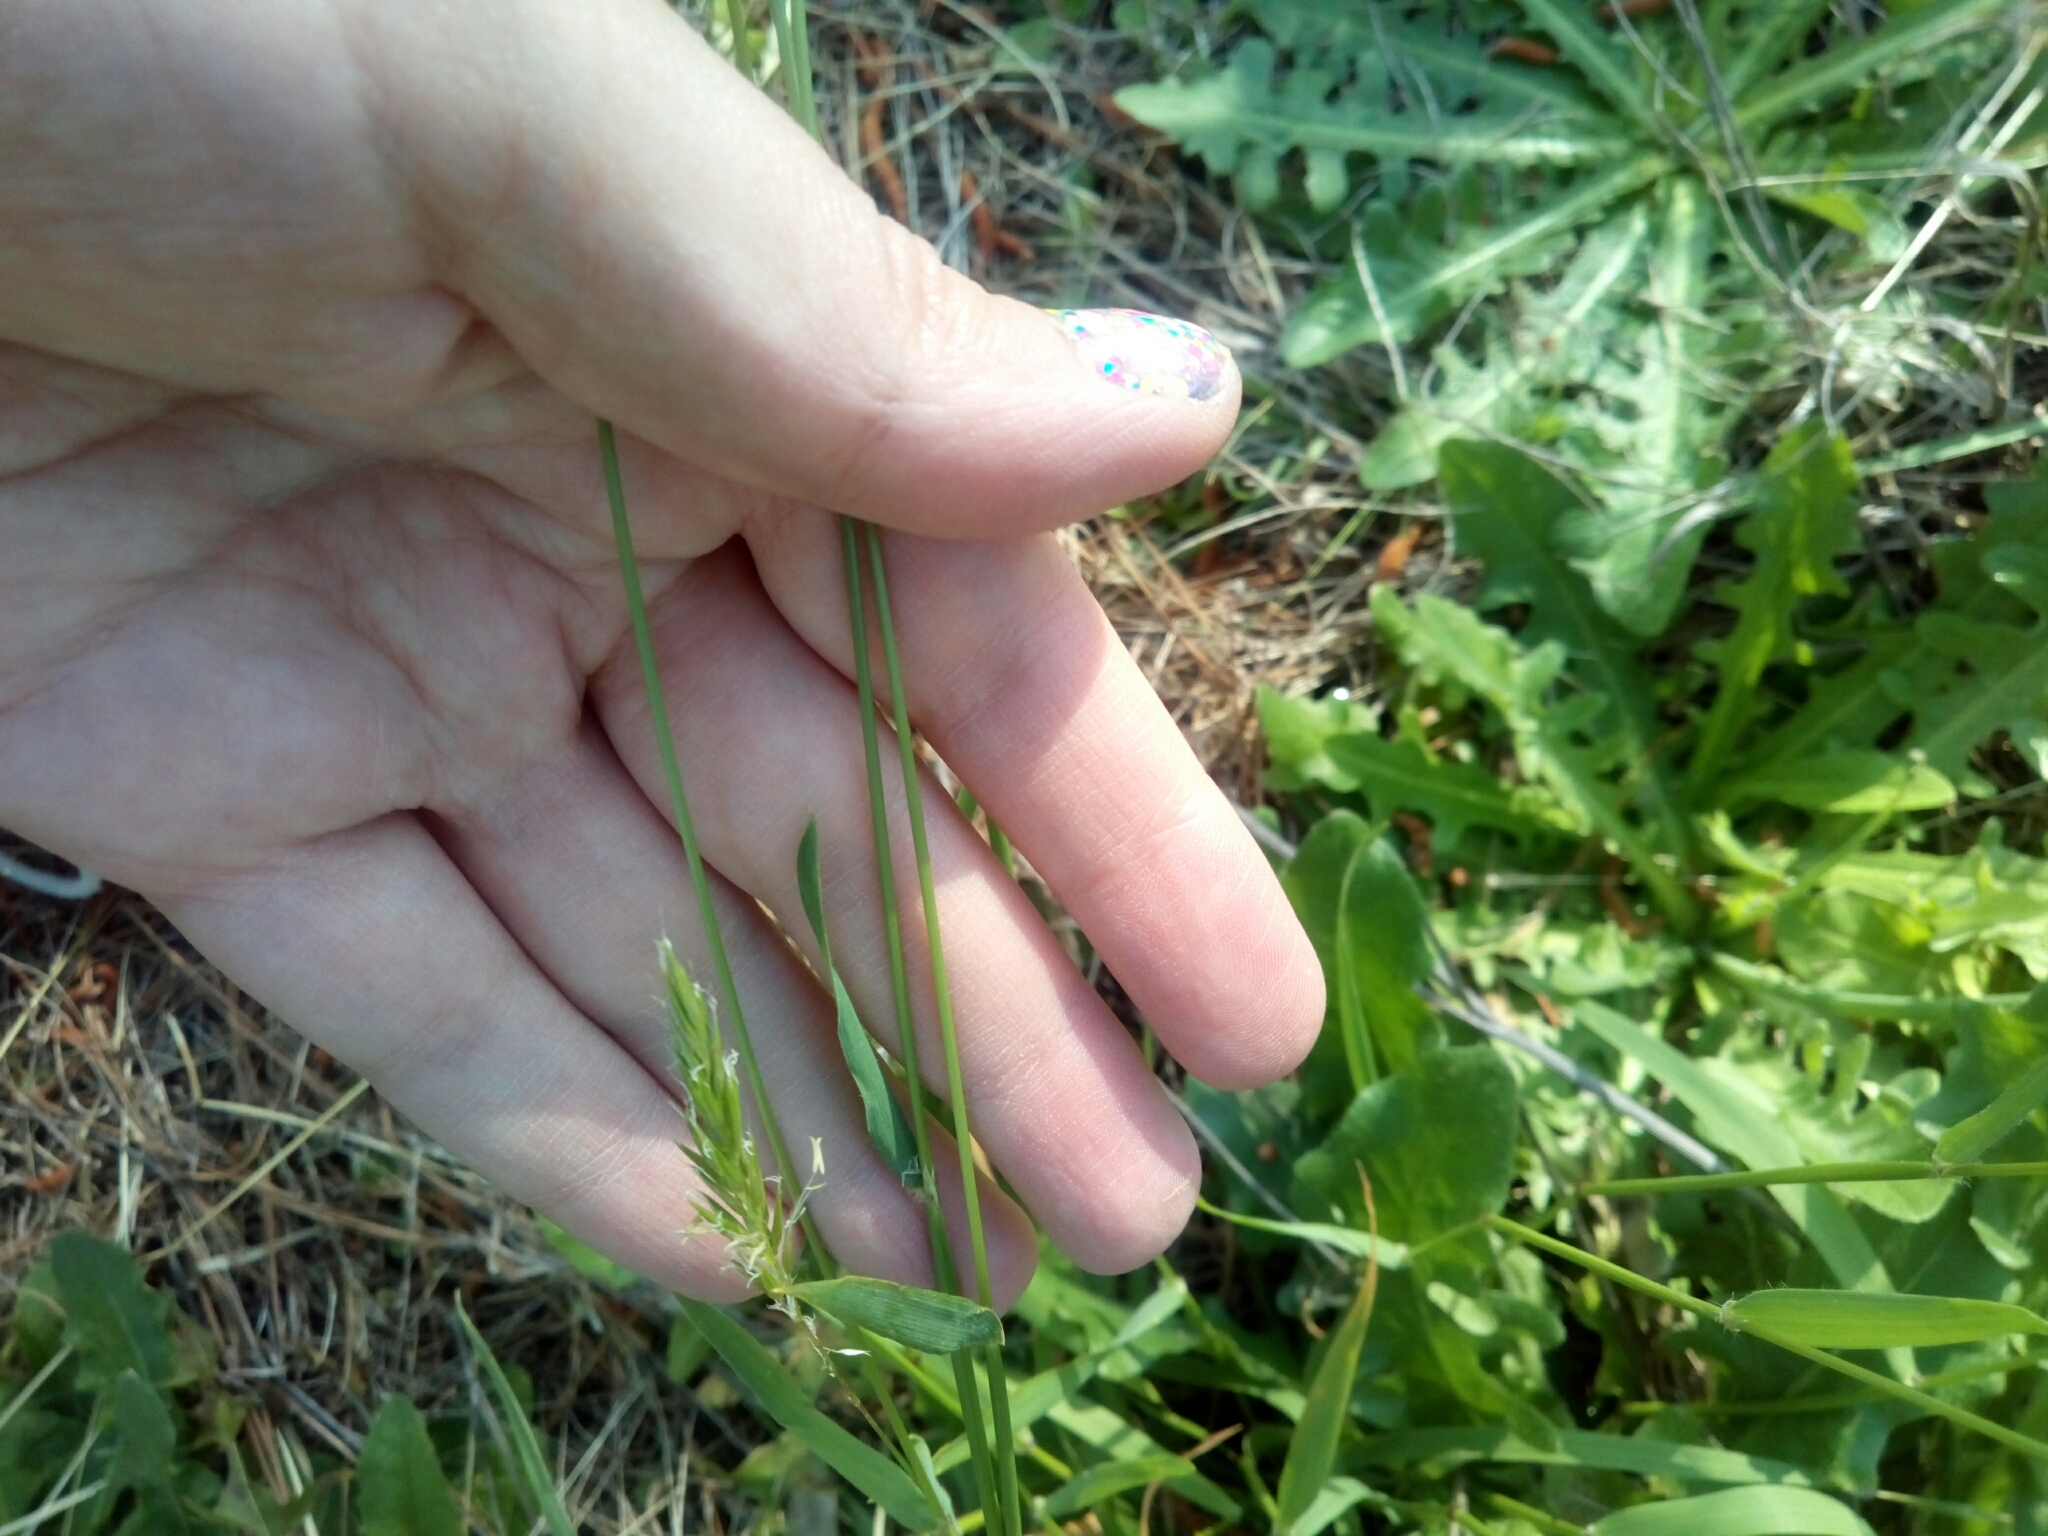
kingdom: Plantae
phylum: Tracheophyta
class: Liliopsida
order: Poales
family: Poaceae
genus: Anthoxanthum
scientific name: Anthoxanthum odoratum
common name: Sweet vernalgrass
